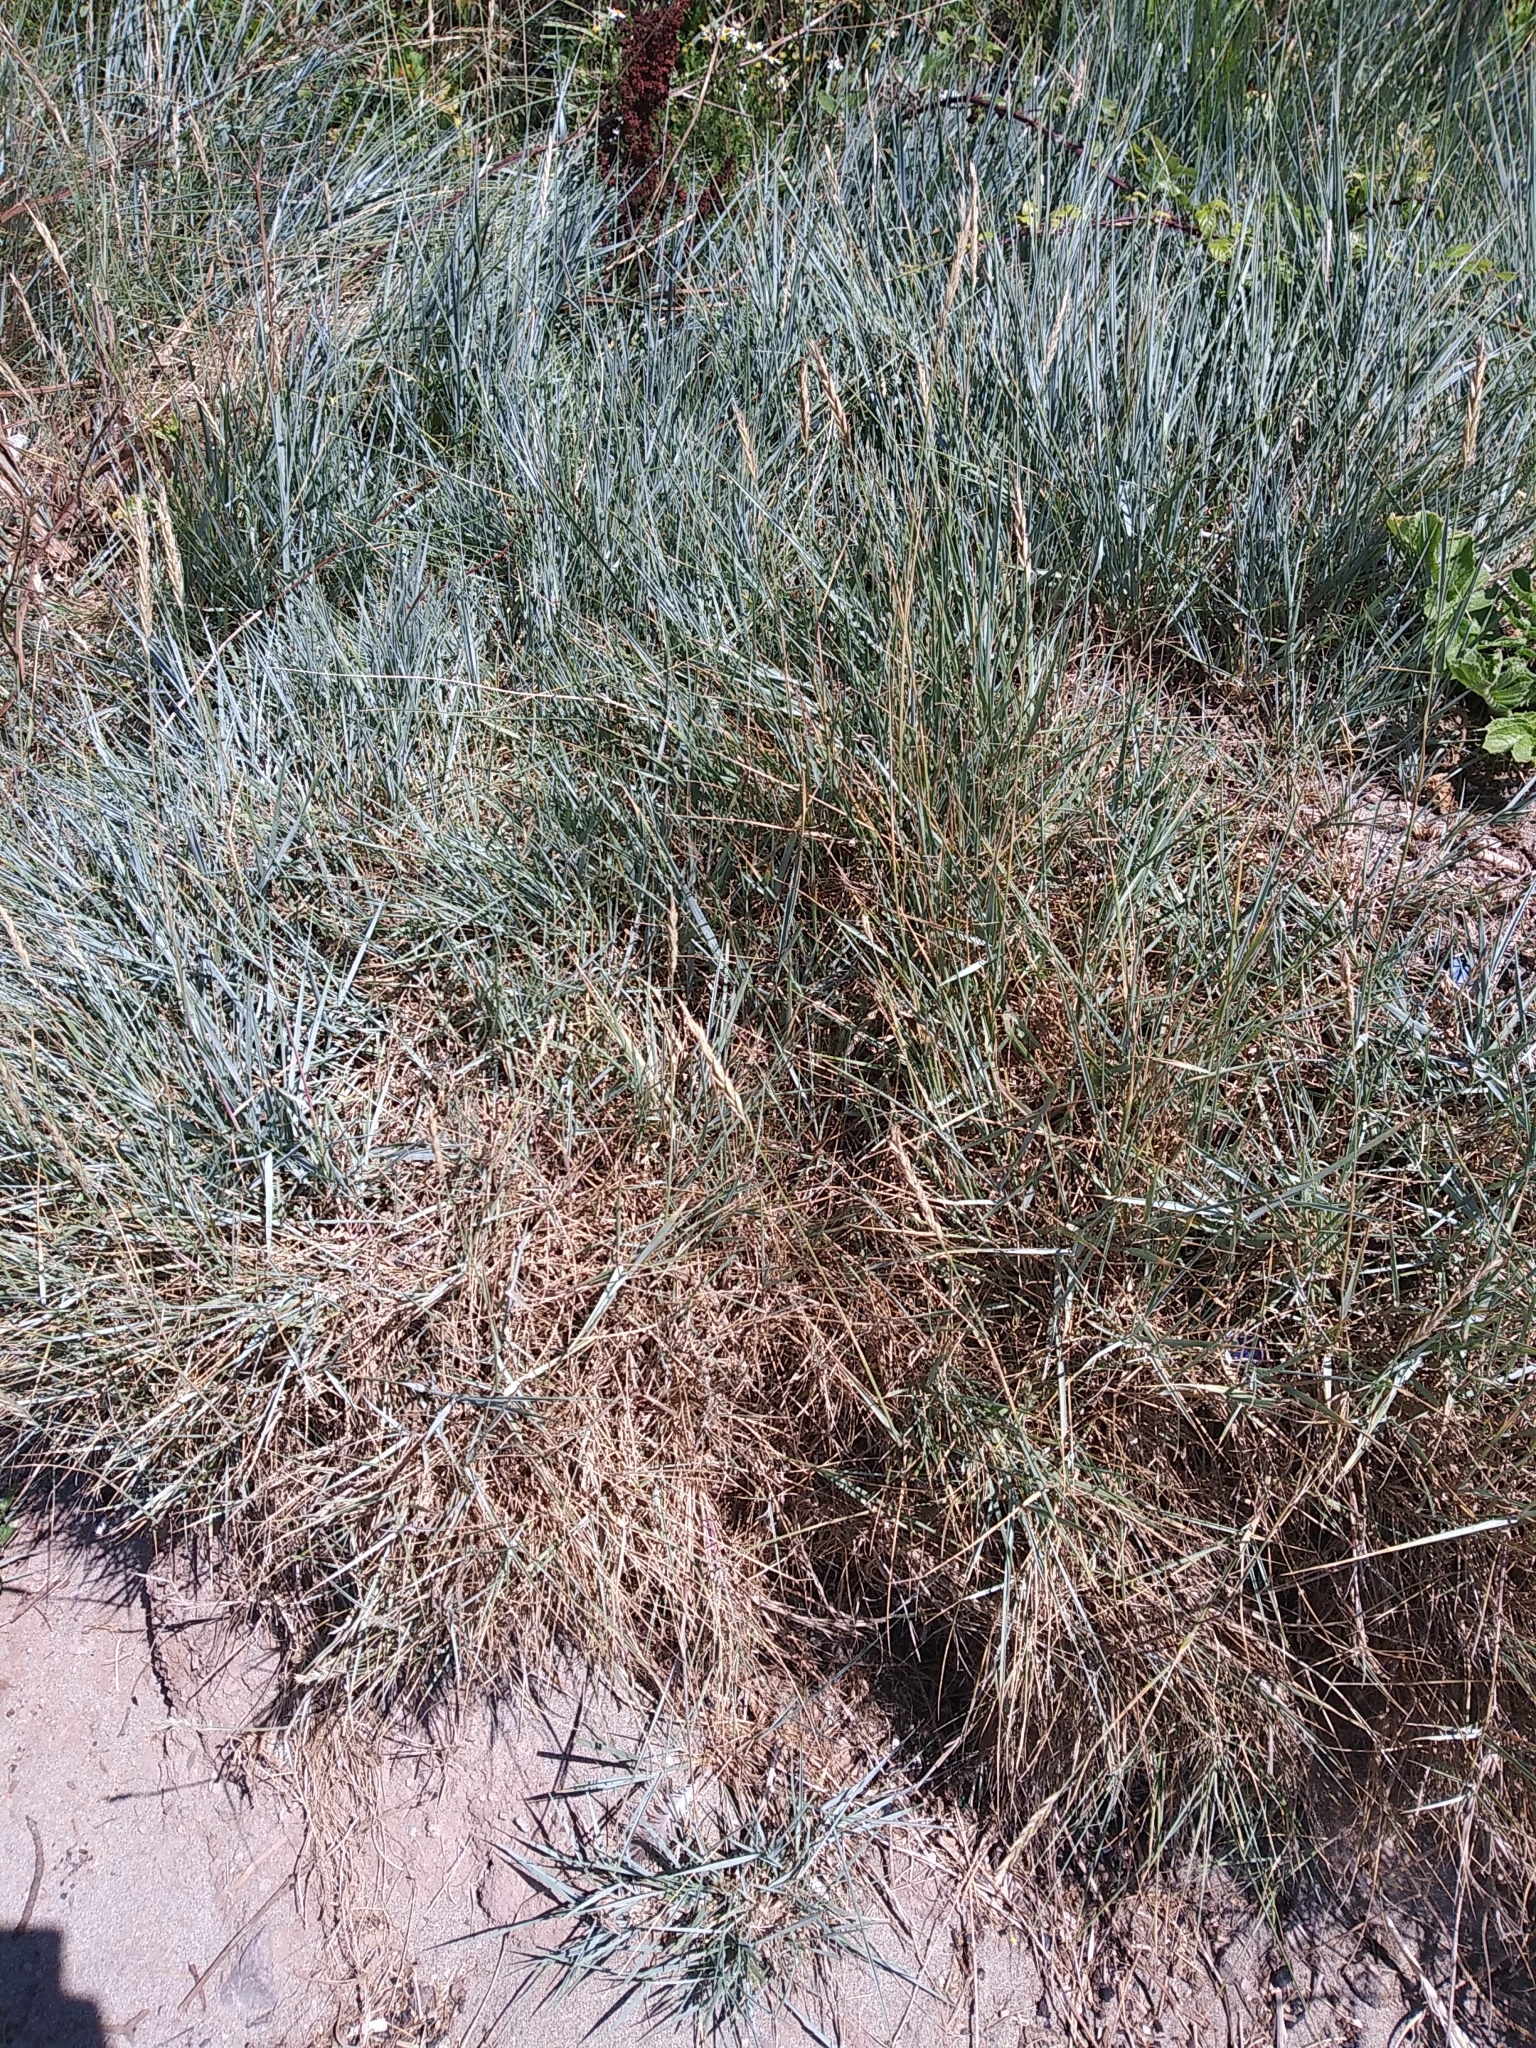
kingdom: Plantae
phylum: Tracheophyta
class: Liliopsida
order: Poales
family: Poaceae
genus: Elymus
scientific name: Elymus athericus
